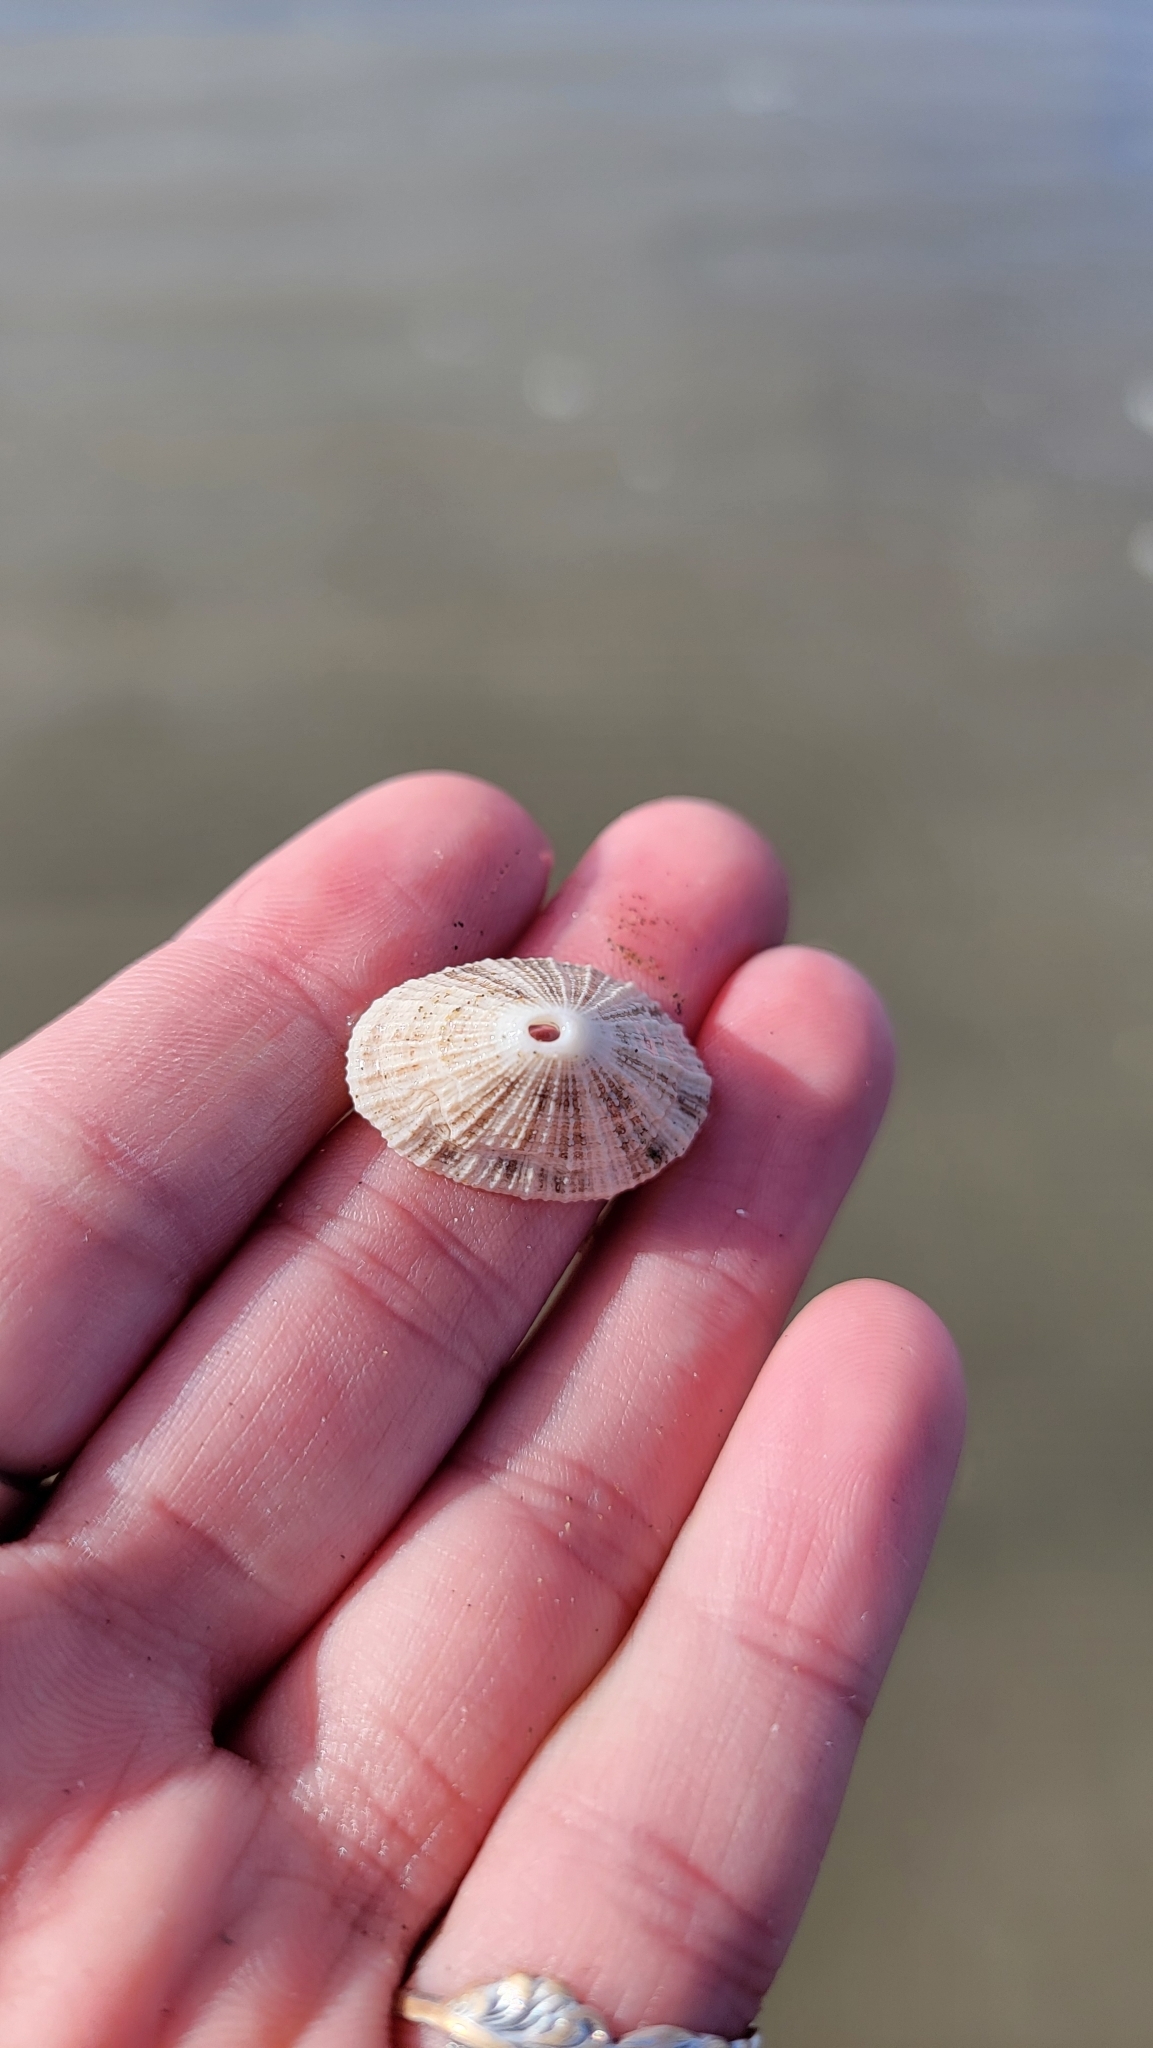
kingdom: Animalia
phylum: Mollusca
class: Gastropoda
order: Lepetellida
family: Fissurellidae
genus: Diodora
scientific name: Diodora aspera
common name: Rough keyhole limpet
